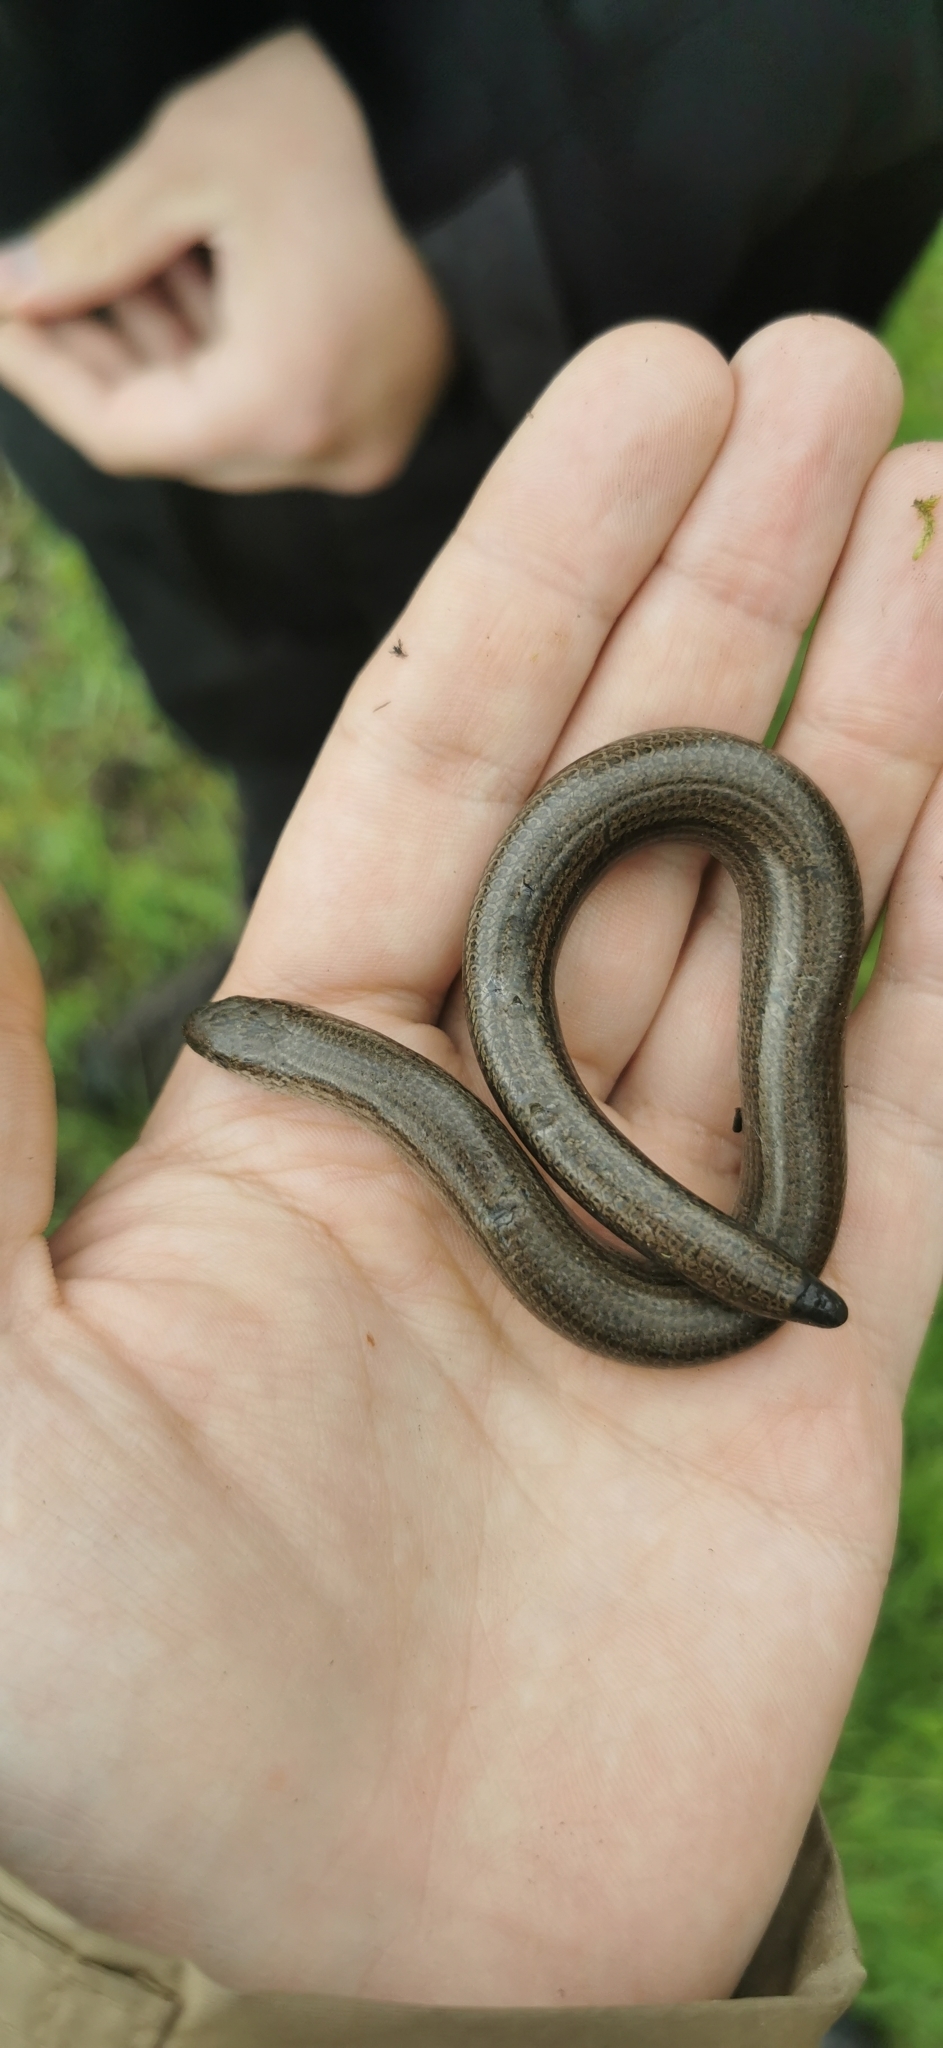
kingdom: Animalia
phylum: Chordata
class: Squamata
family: Anguidae
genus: Anguis
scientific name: Anguis fragilis
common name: Slow worm
